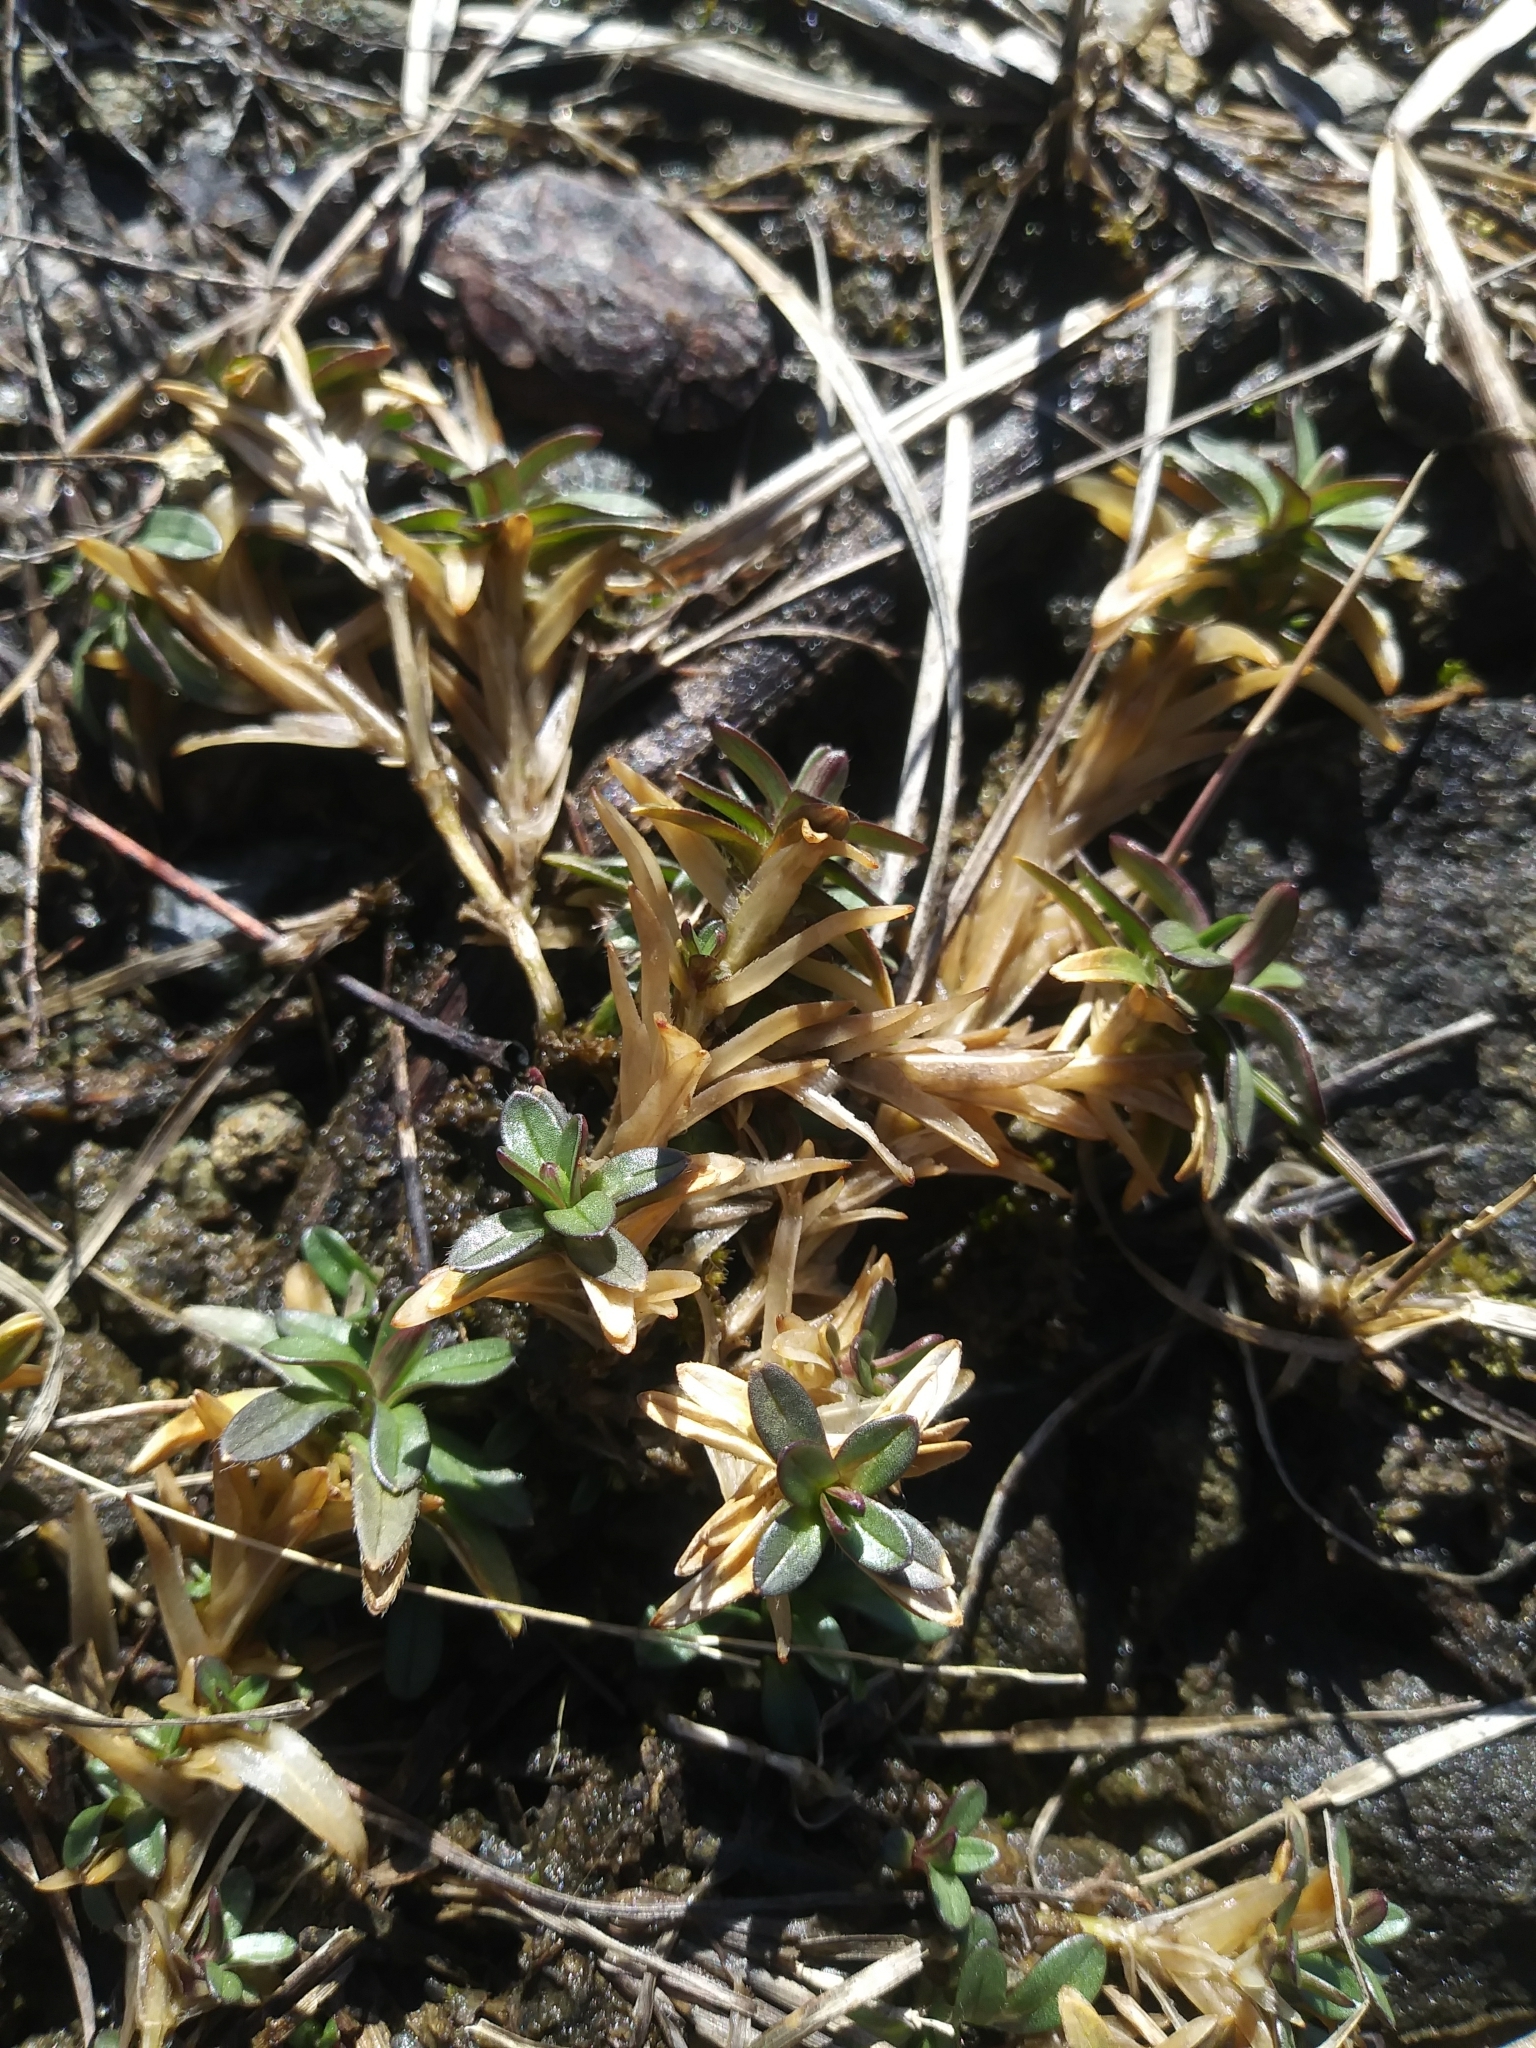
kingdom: Plantae
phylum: Tracheophyta
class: Magnoliopsida
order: Caryophyllales
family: Caryophyllaceae
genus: Cerastium
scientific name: Cerastium velutinum
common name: Barren chickweed
